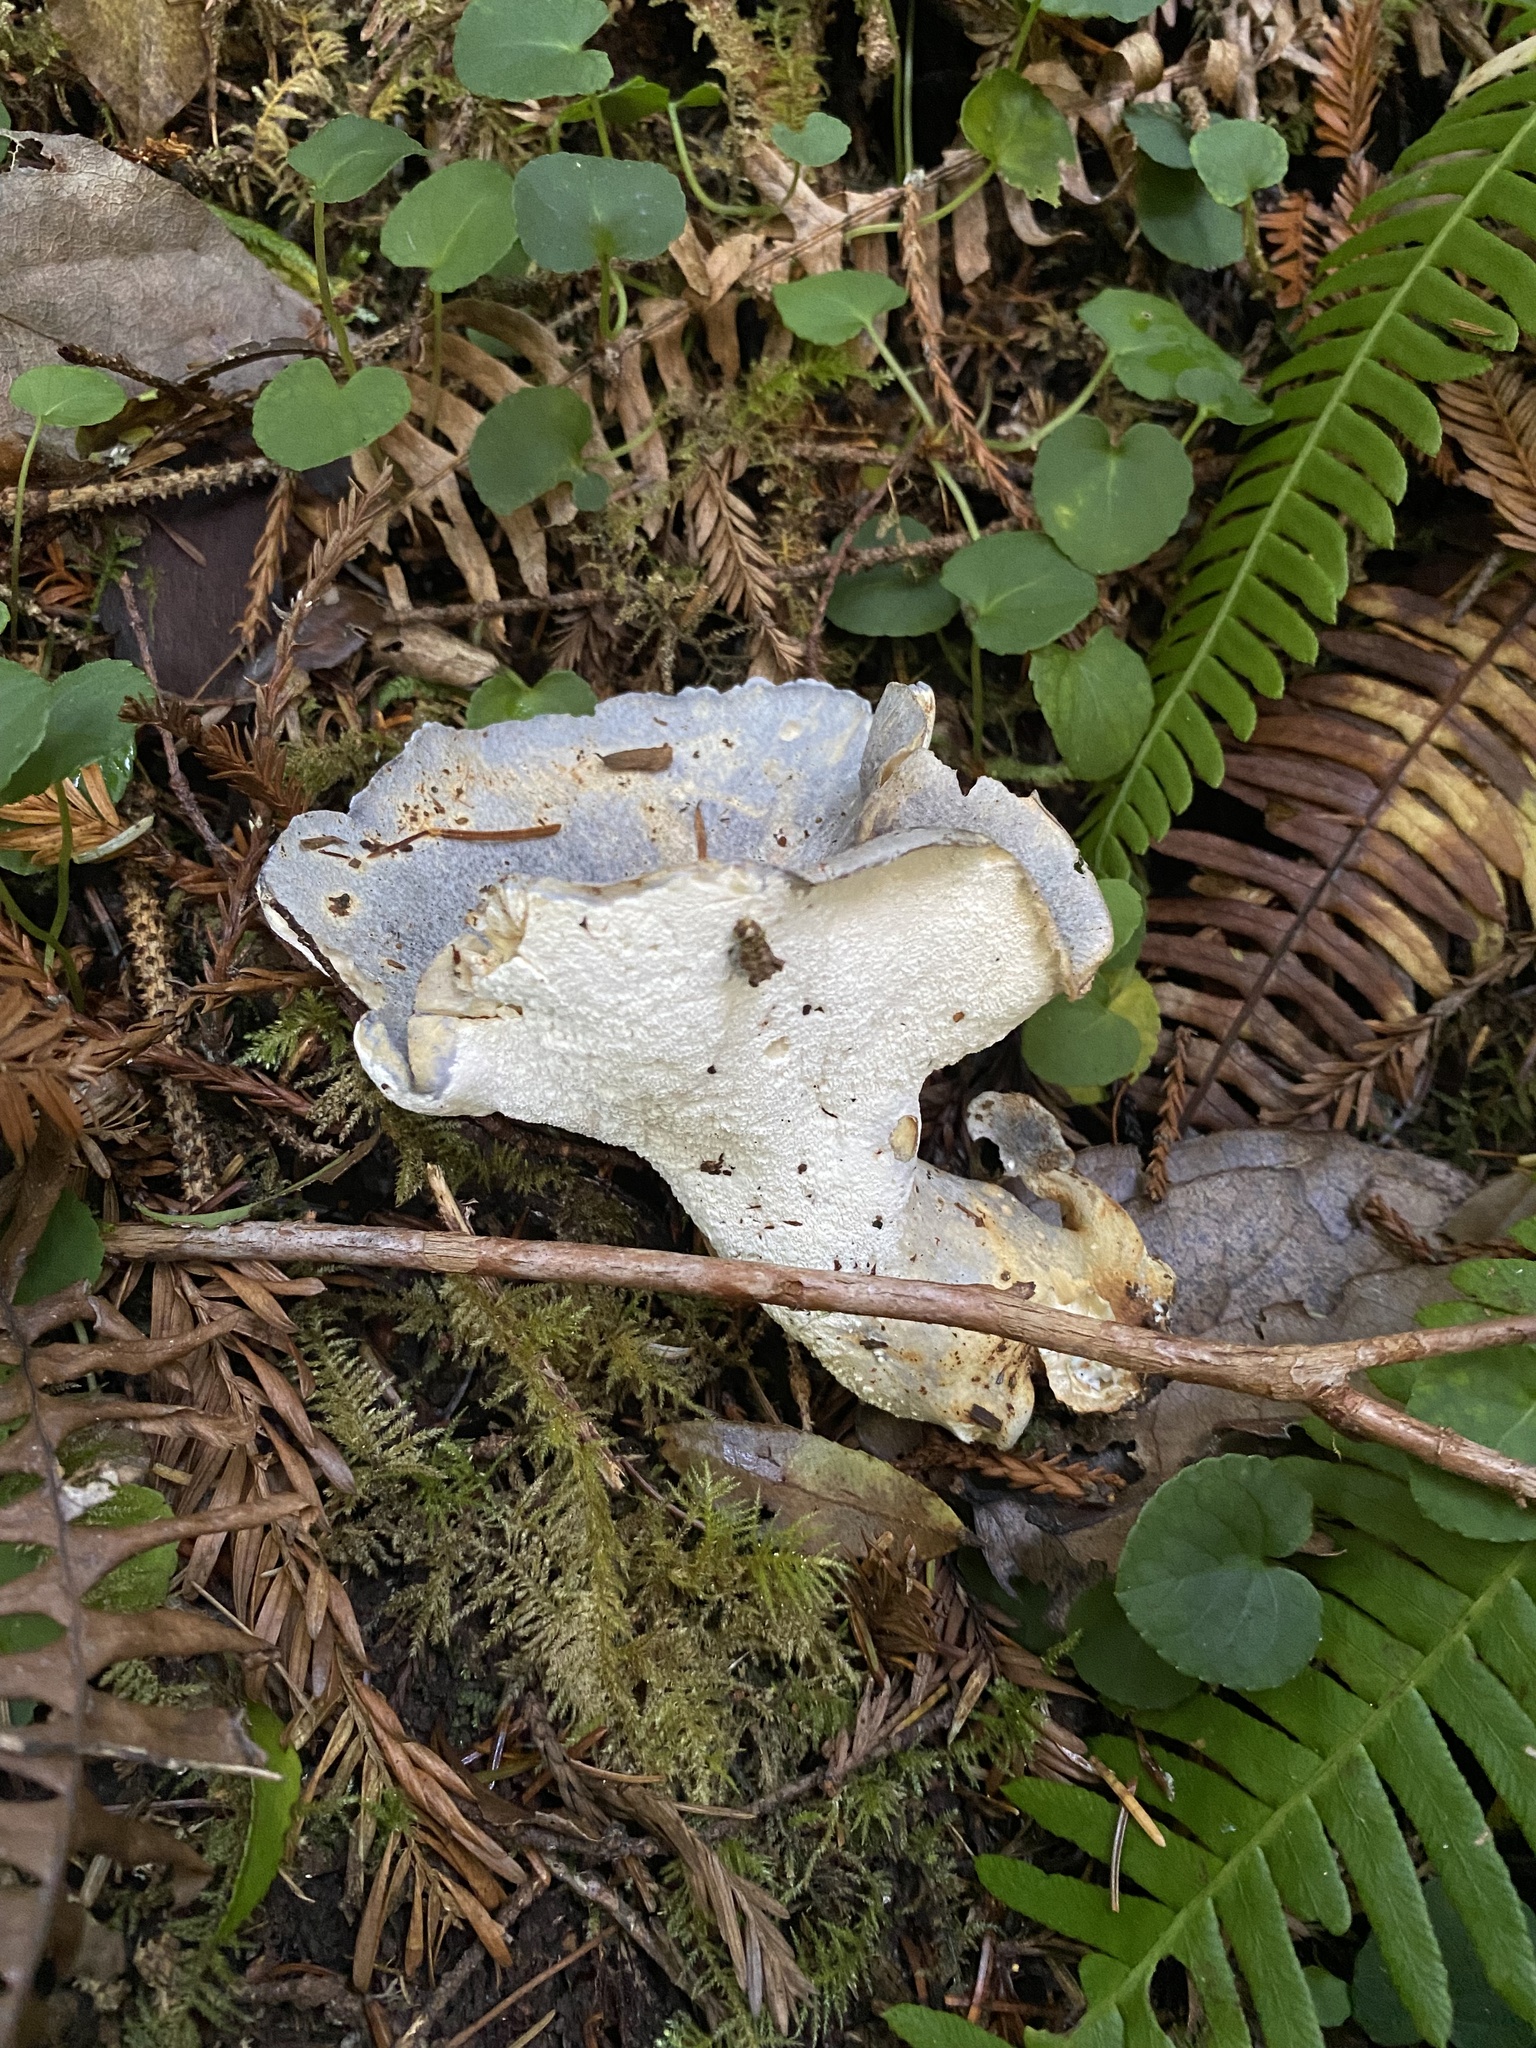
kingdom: Fungi
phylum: Basidiomycota
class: Agaricomycetes
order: Russulales
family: Albatrellaceae
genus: Albatrellopsis
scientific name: Albatrellopsis flettii
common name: Blue polypore
